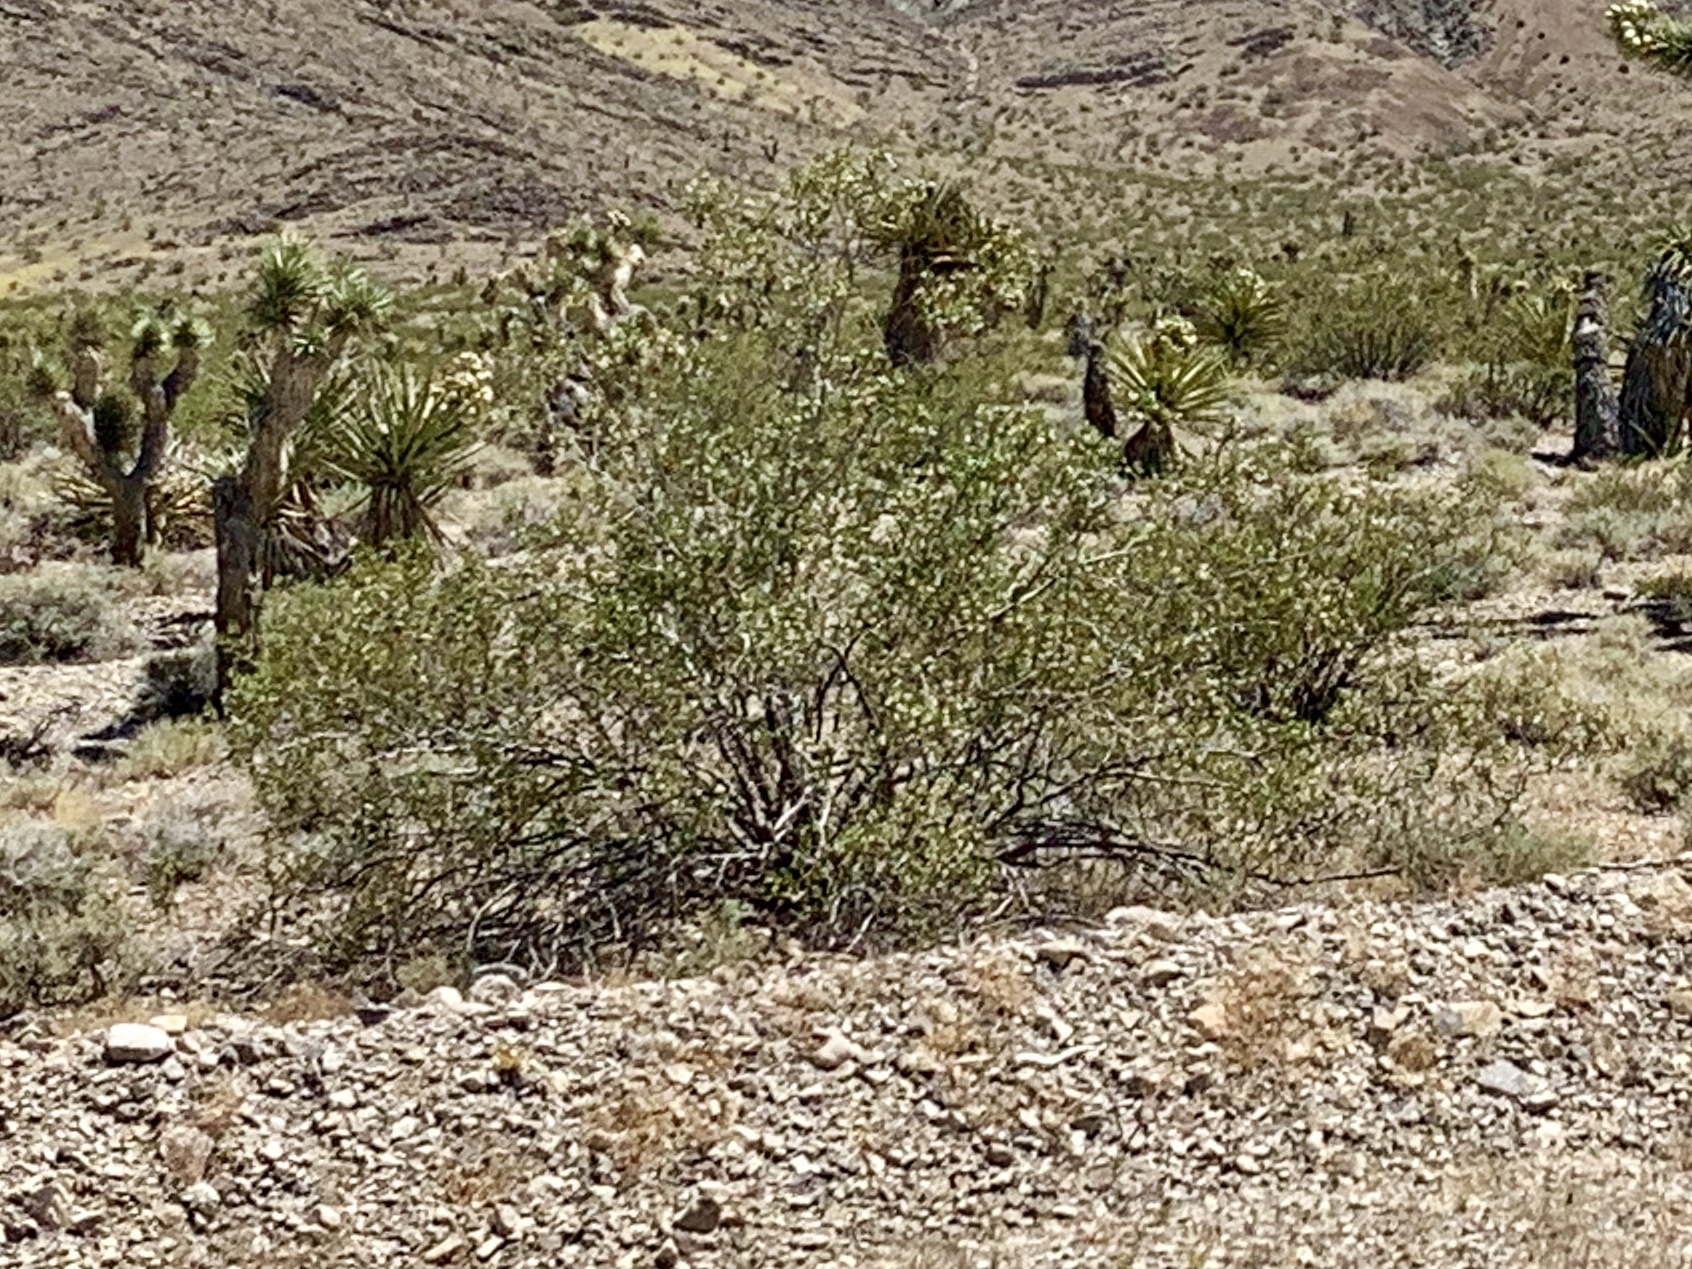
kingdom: Plantae
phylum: Tracheophyta
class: Magnoliopsida
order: Zygophyllales
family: Zygophyllaceae
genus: Larrea
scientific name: Larrea tridentata
